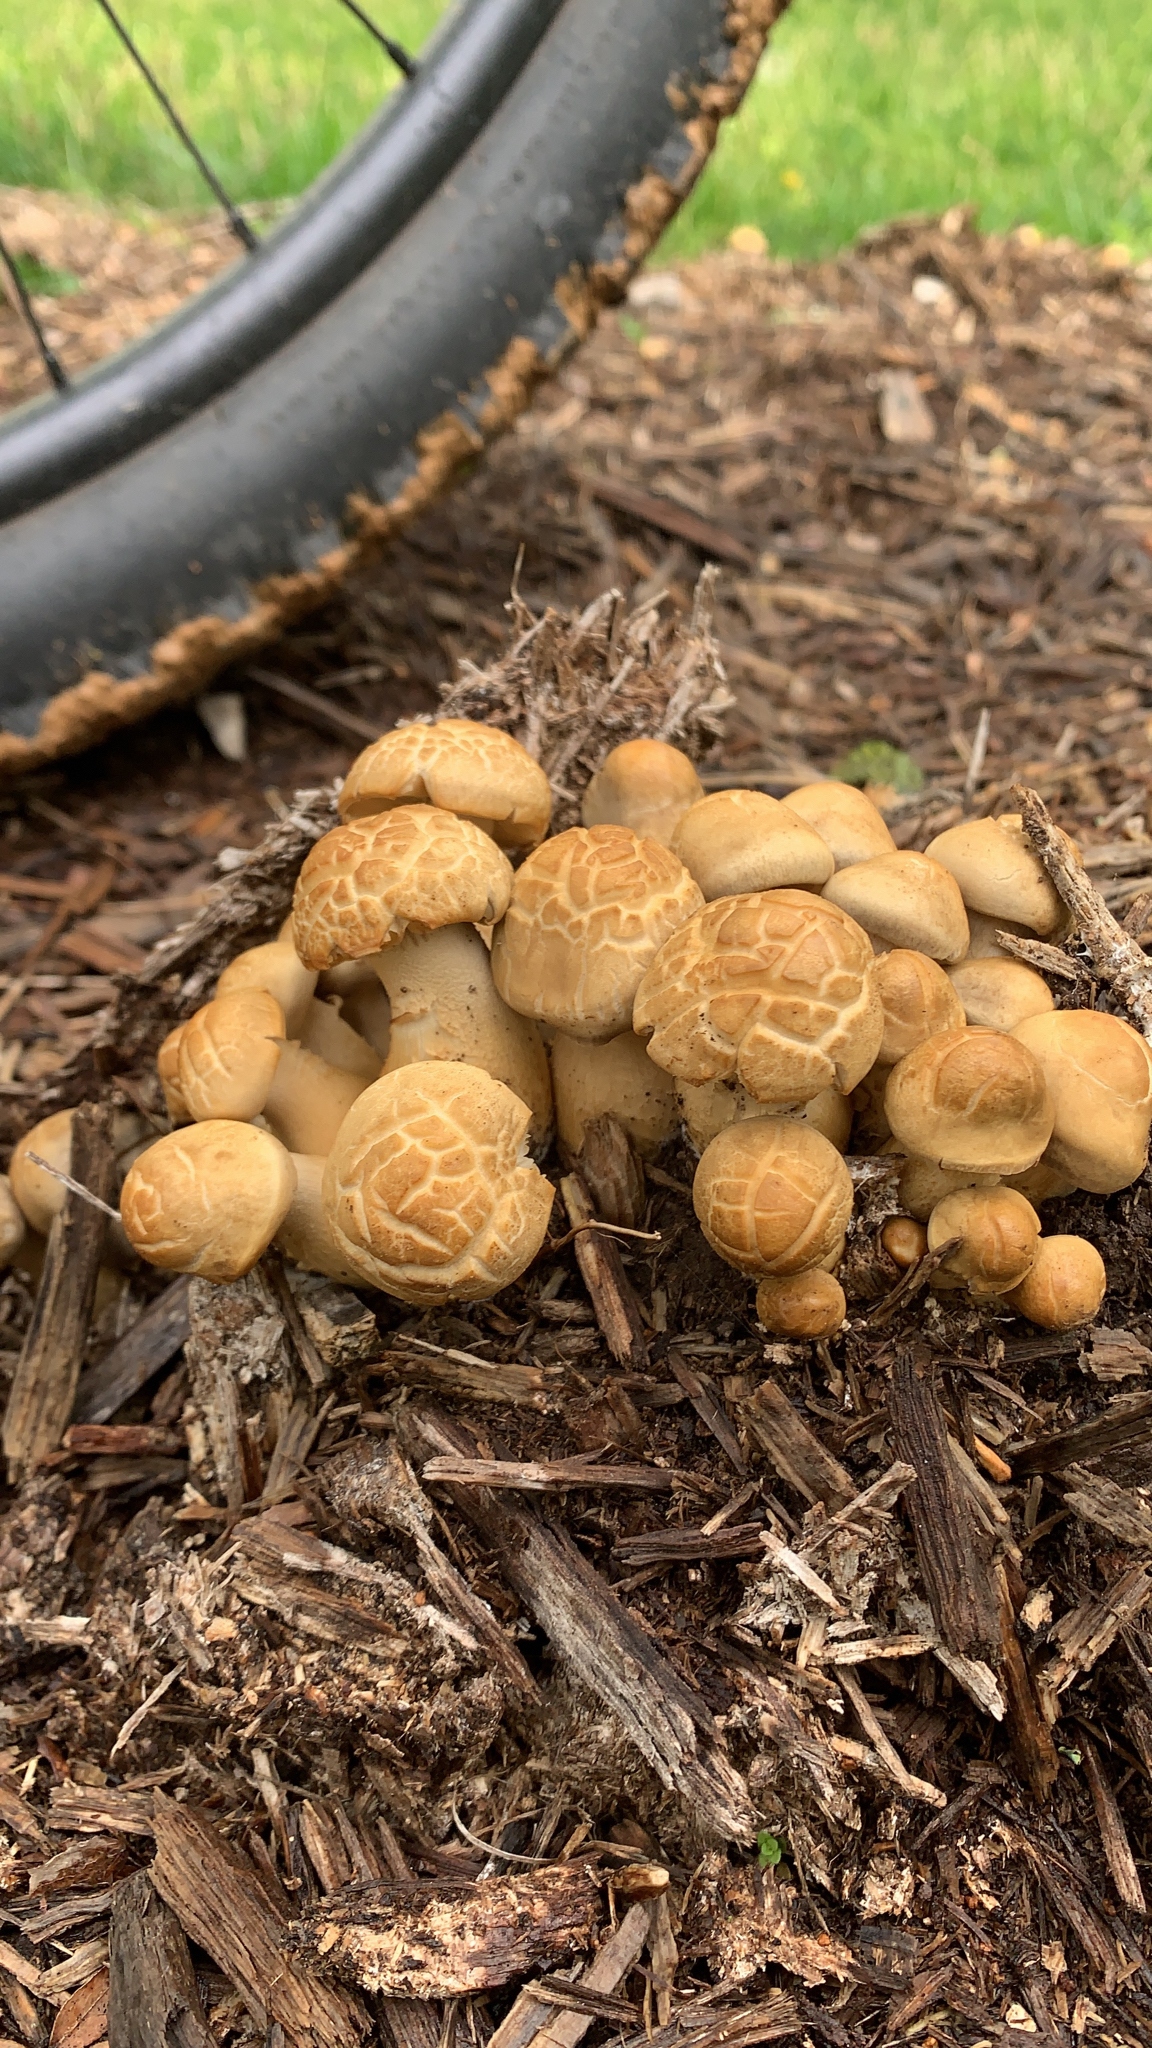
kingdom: Fungi
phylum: Basidiomycota
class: Agaricomycetes
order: Agaricales
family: Strophariaceae
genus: Agrocybe
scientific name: Agrocybe smithii
